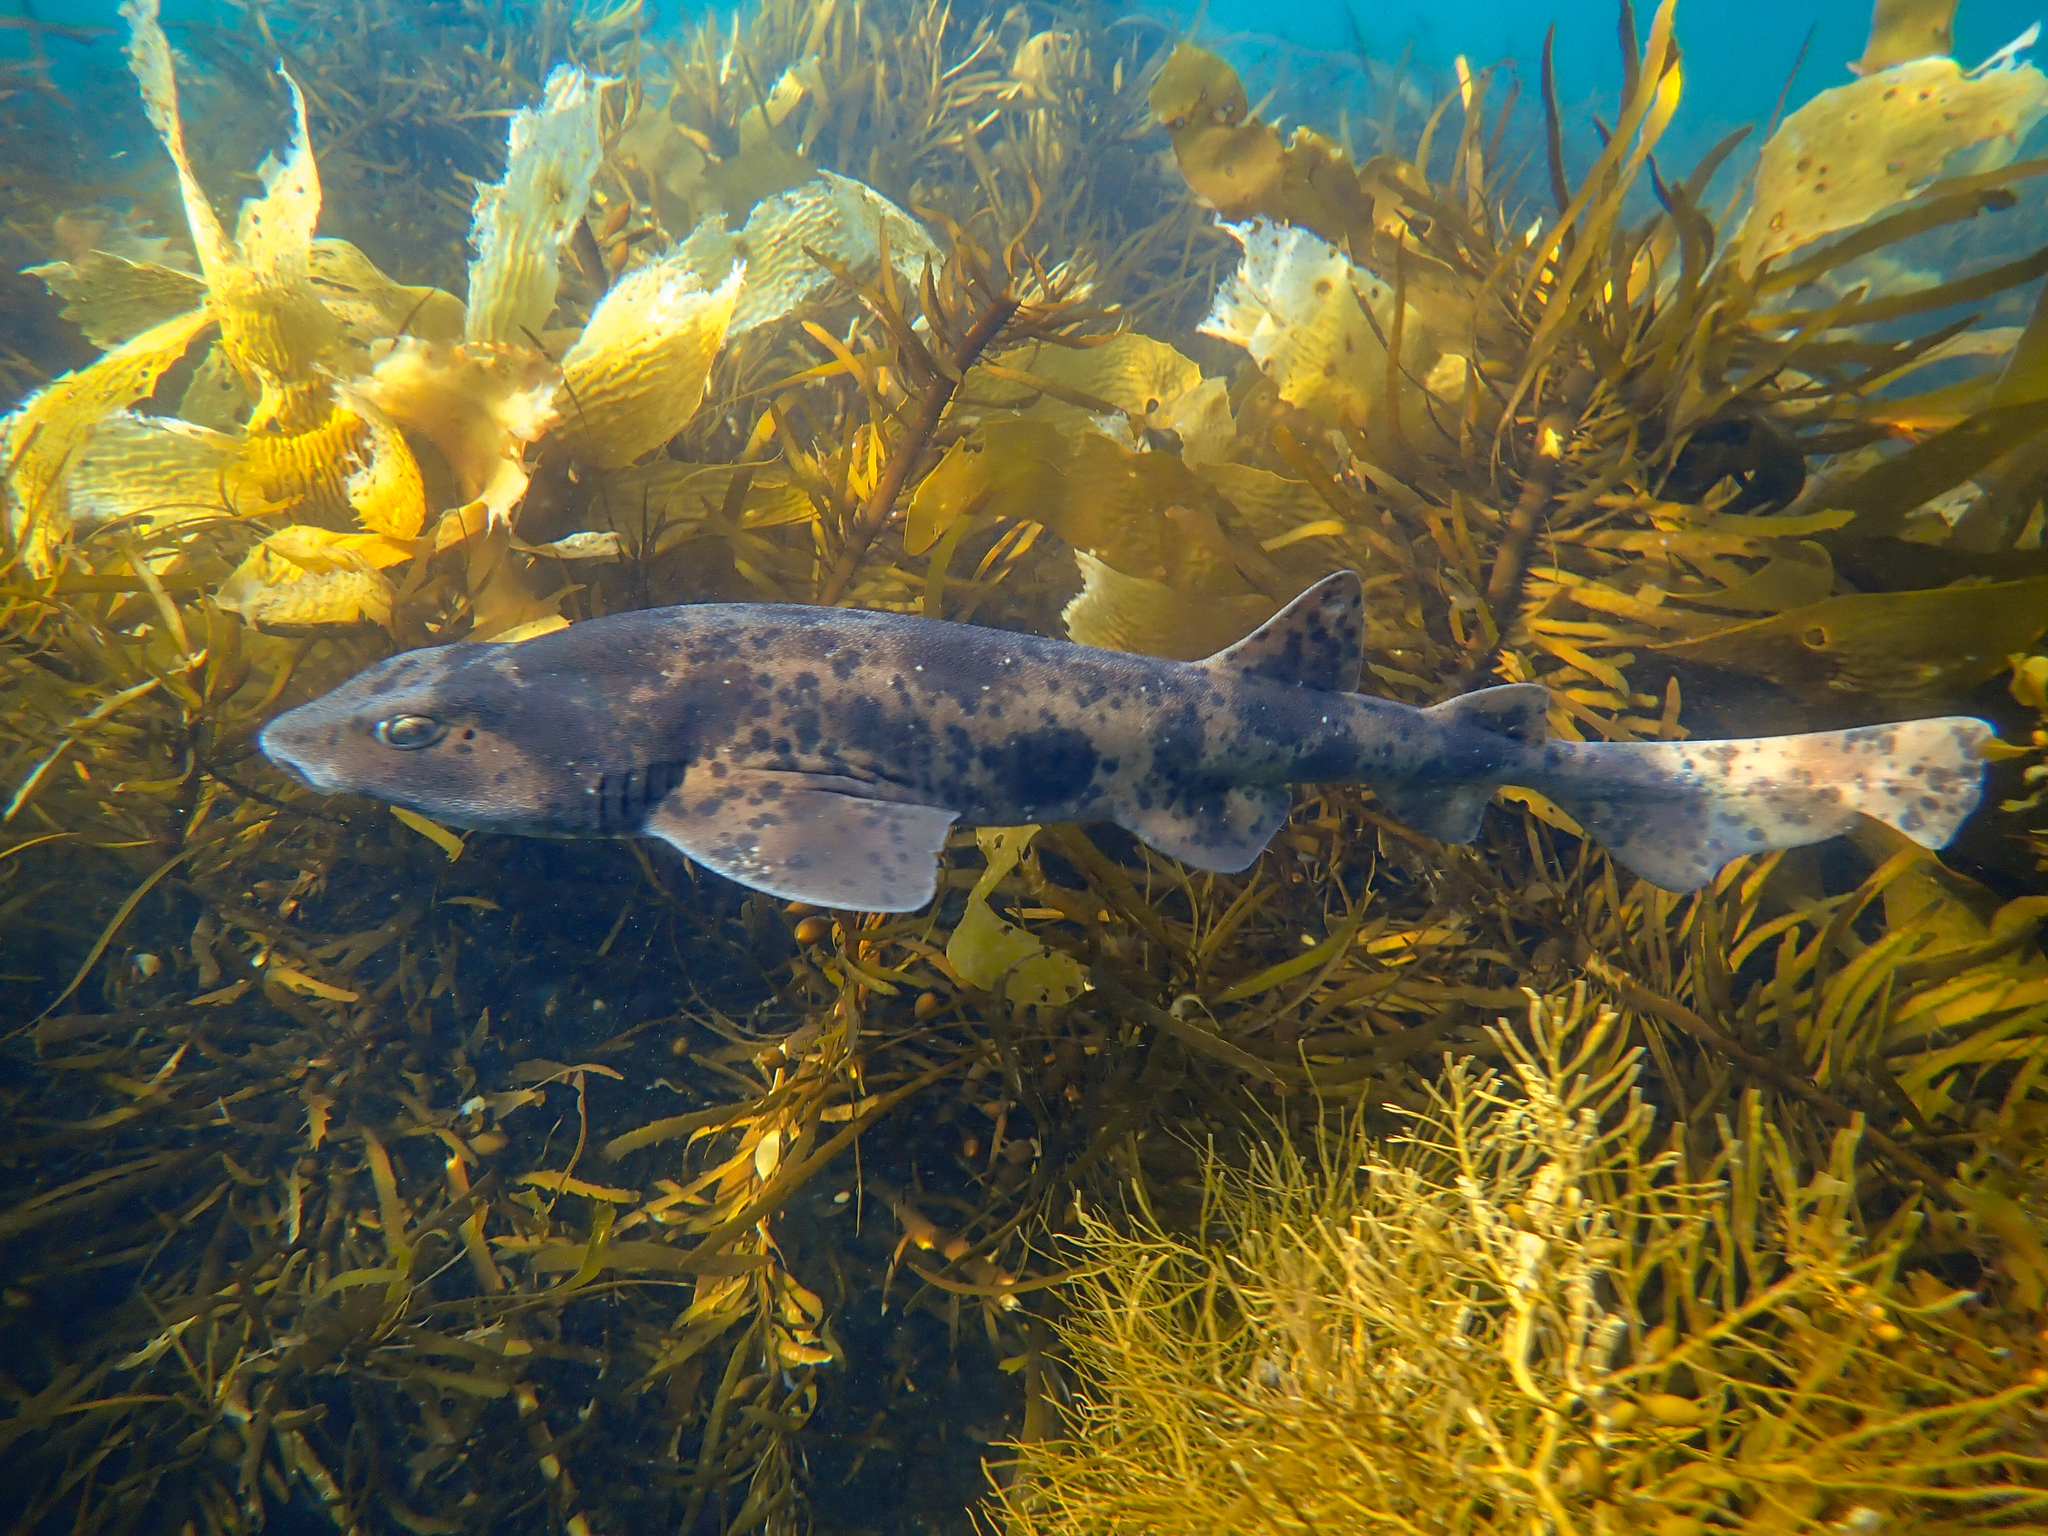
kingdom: Animalia
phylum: Chordata
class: Elasmobranchii
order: Carcharhiniformes
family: Scyliorhinidae
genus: Cephaloscyllium
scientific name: Cephaloscyllium laticeps
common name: Australian swellshark
